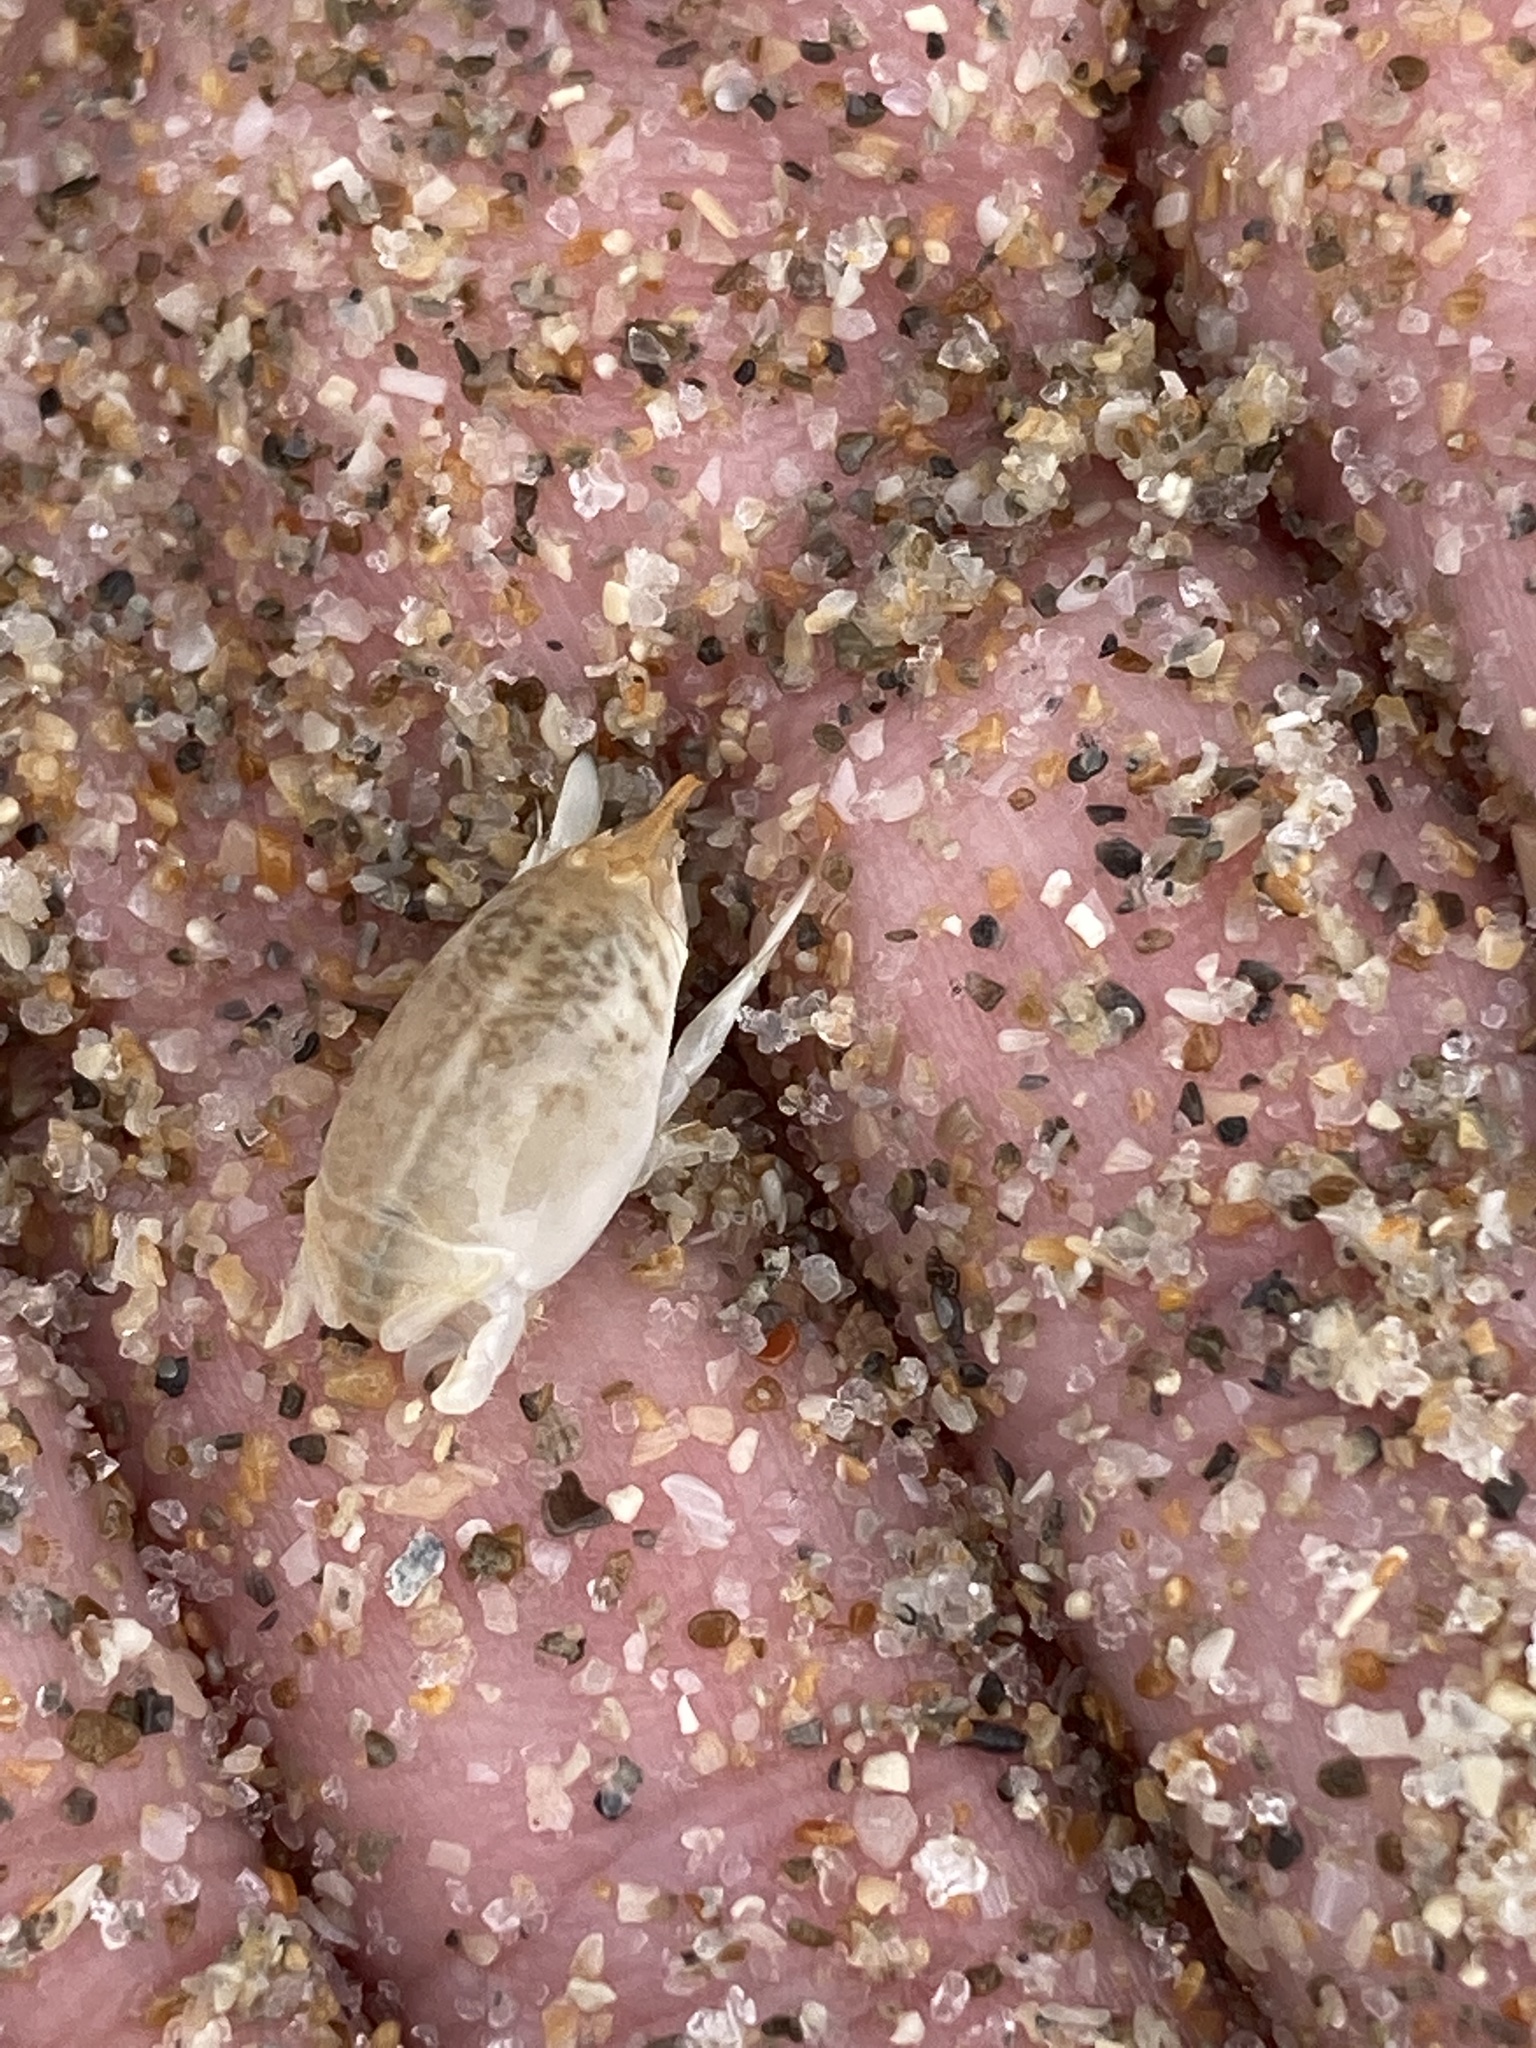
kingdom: Animalia
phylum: Arthropoda
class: Malacostraca
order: Decapoda
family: Hippidae
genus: Emerita
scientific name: Emerita talpoida
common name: Atlantic sand crab
